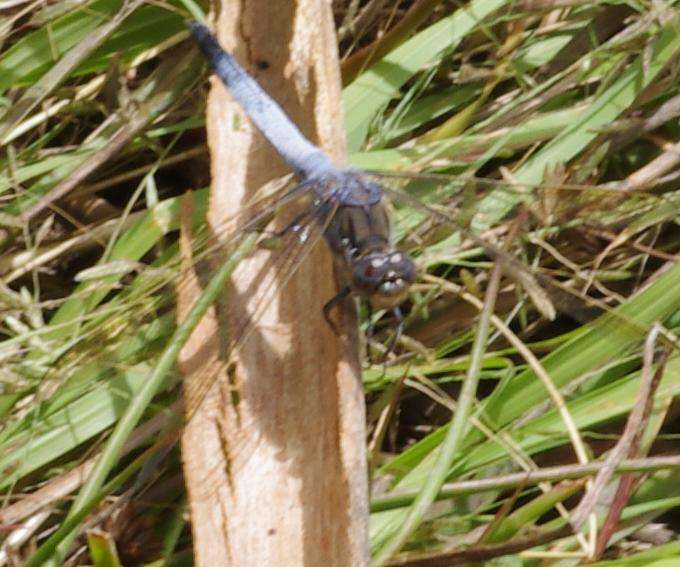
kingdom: Animalia
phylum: Arthropoda
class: Insecta
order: Odonata
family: Libellulidae
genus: Orthetrum
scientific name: Orthetrum caledonicum
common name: Blue skimmer
